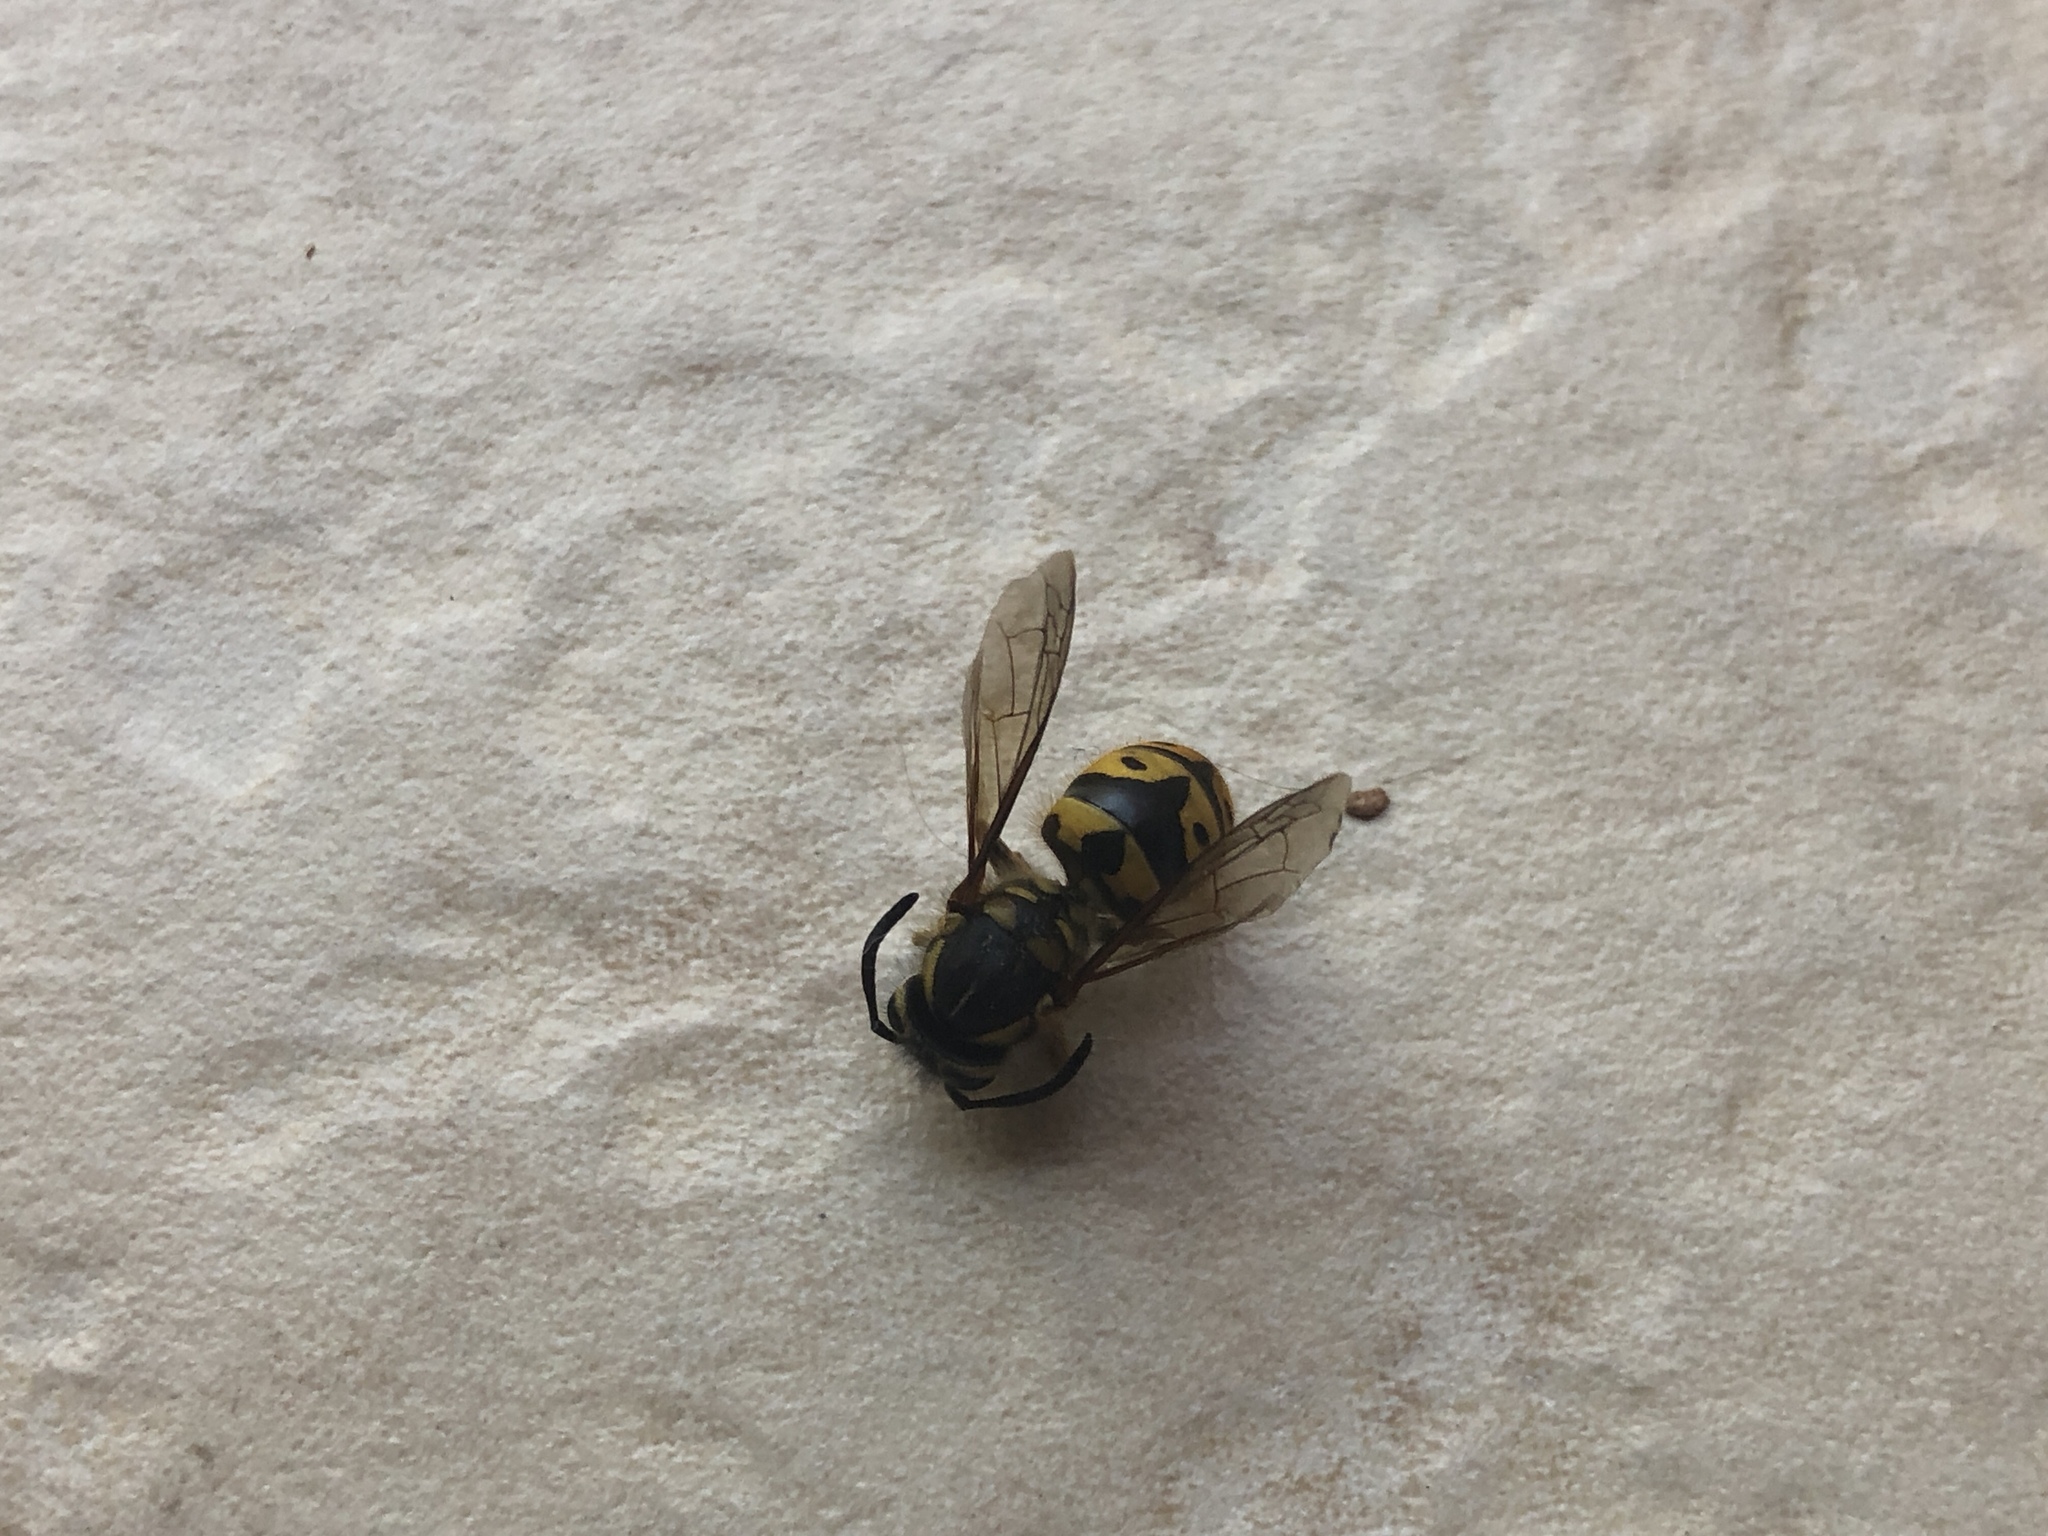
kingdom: Animalia
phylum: Arthropoda
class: Insecta
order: Hymenoptera
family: Vespidae
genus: Vespula
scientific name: Vespula pensylvanica
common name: Western yellowjacket
